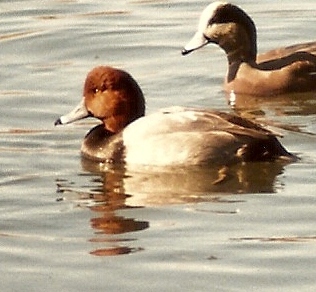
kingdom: Animalia
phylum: Chordata
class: Aves
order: Anseriformes
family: Anatidae
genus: Aythya
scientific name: Aythya americana
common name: Redhead
